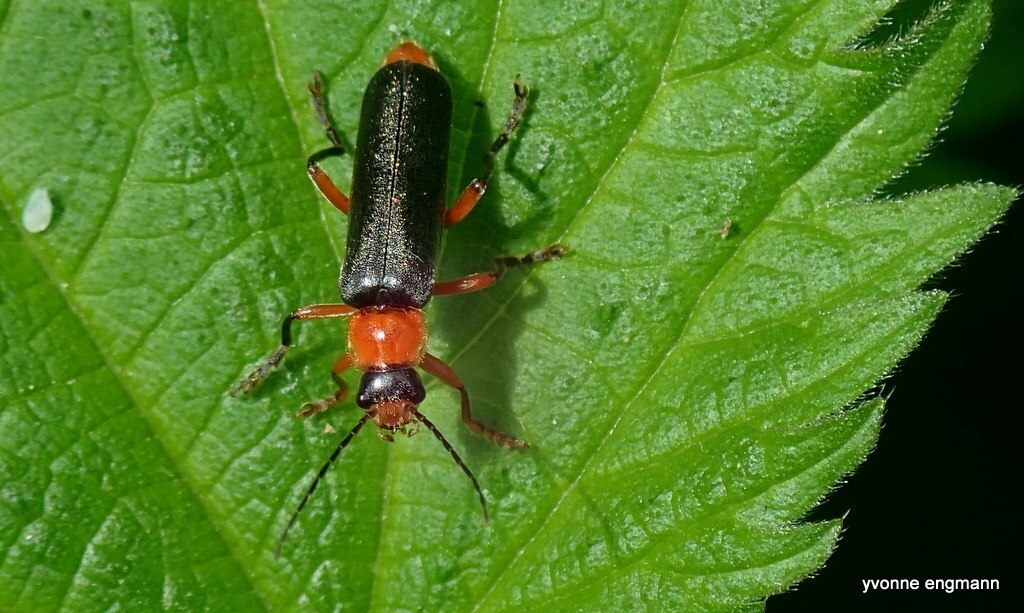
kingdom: Animalia
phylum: Arthropoda
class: Insecta
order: Coleoptera
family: Cantharidae
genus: Cantharis
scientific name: Cantharis pellucida
